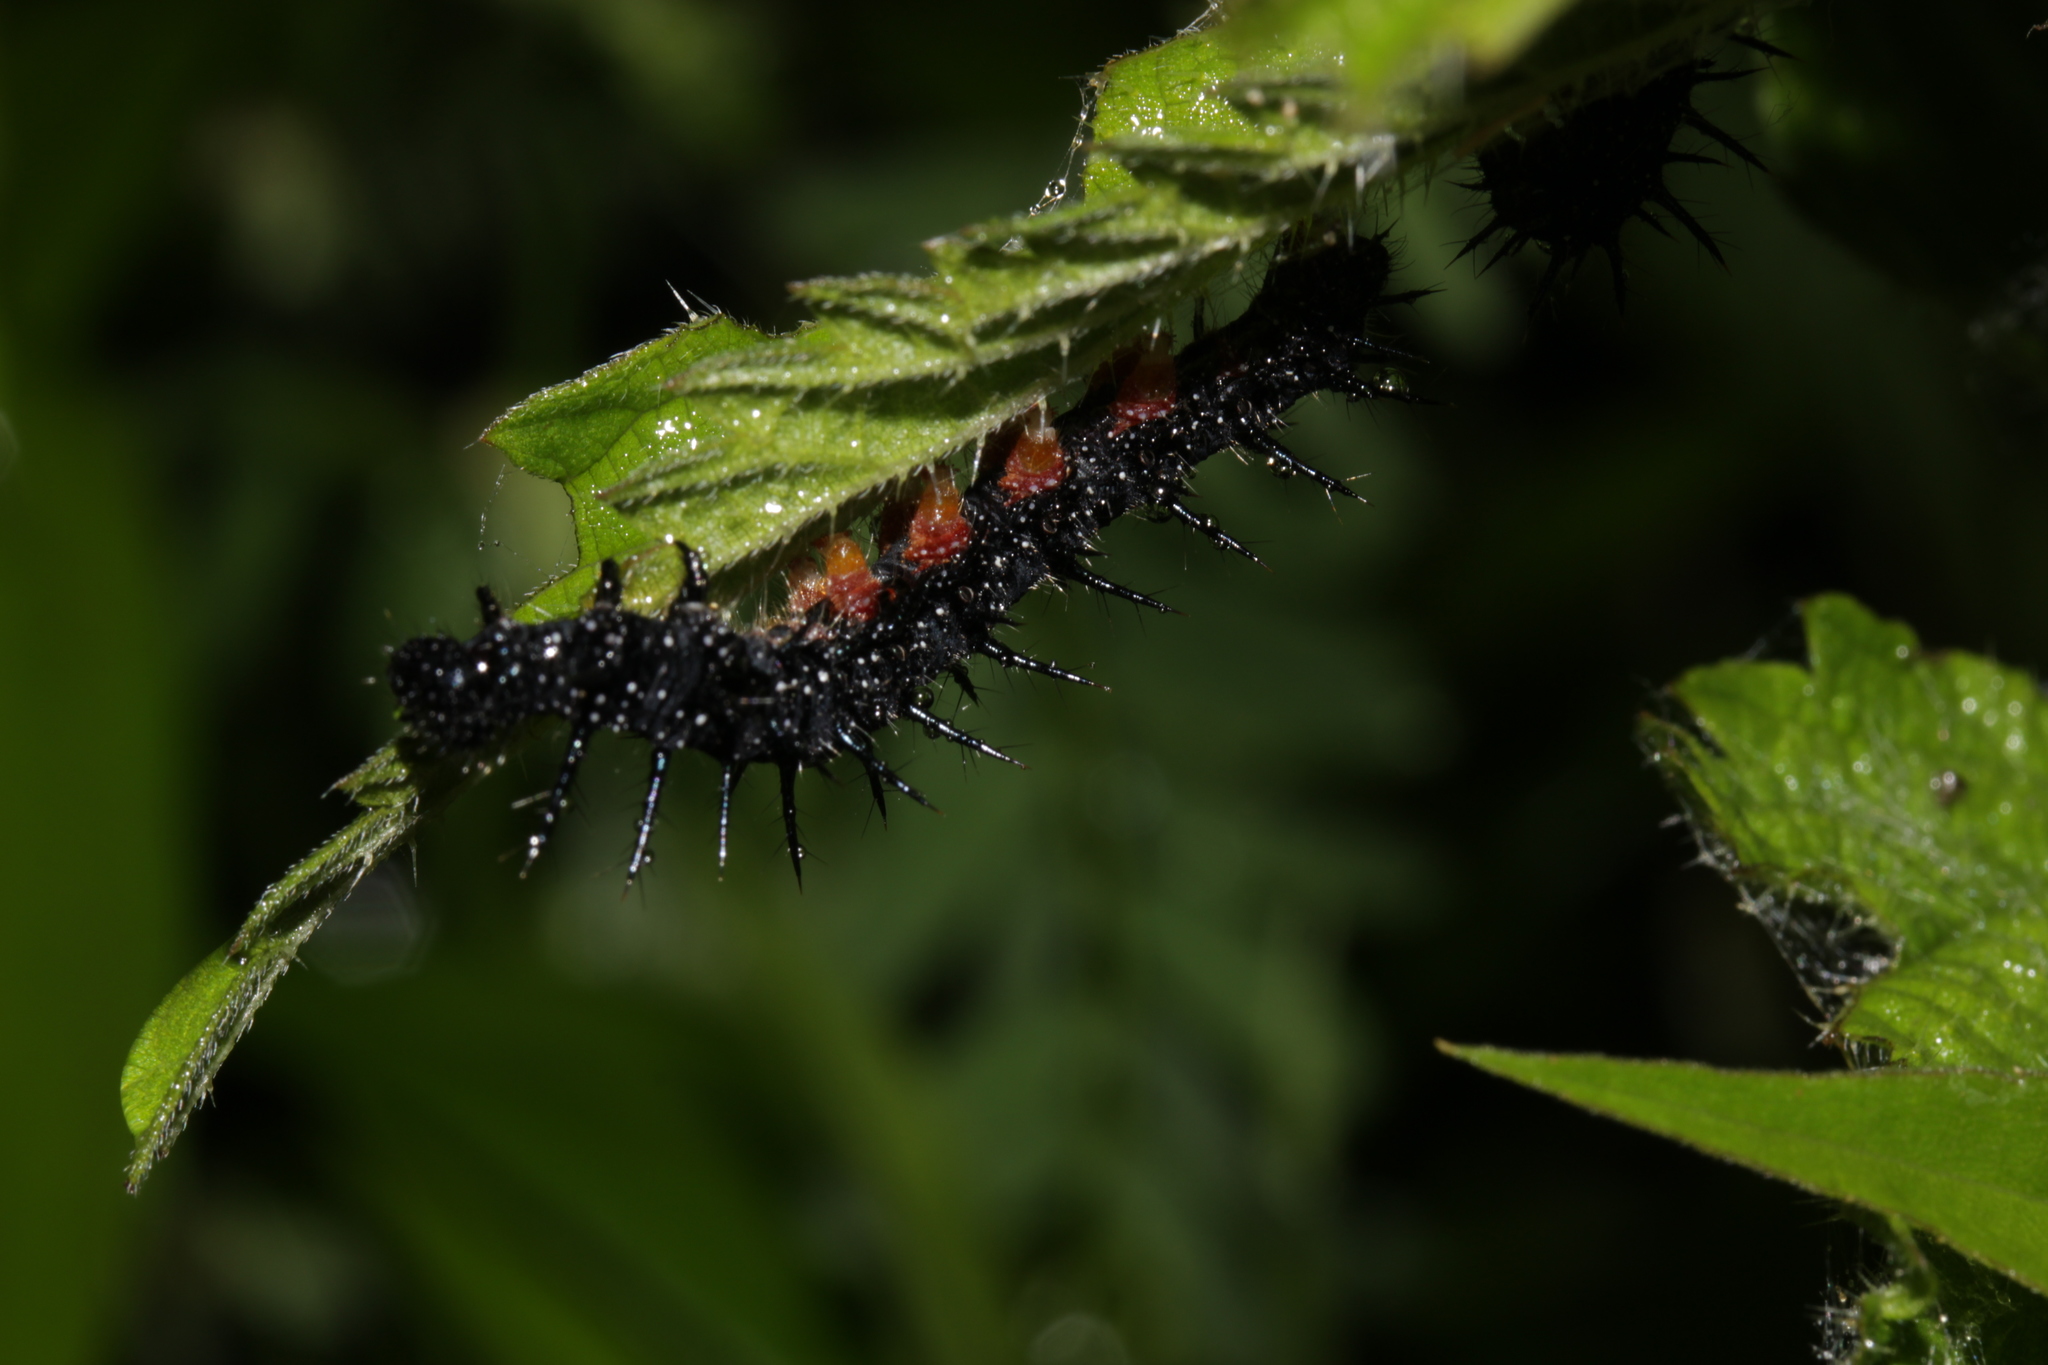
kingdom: Animalia
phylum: Arthropoda
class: Insecta
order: Lepidoptera
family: Nymphalidae
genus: Aglais
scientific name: Aglais io
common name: Peacock
